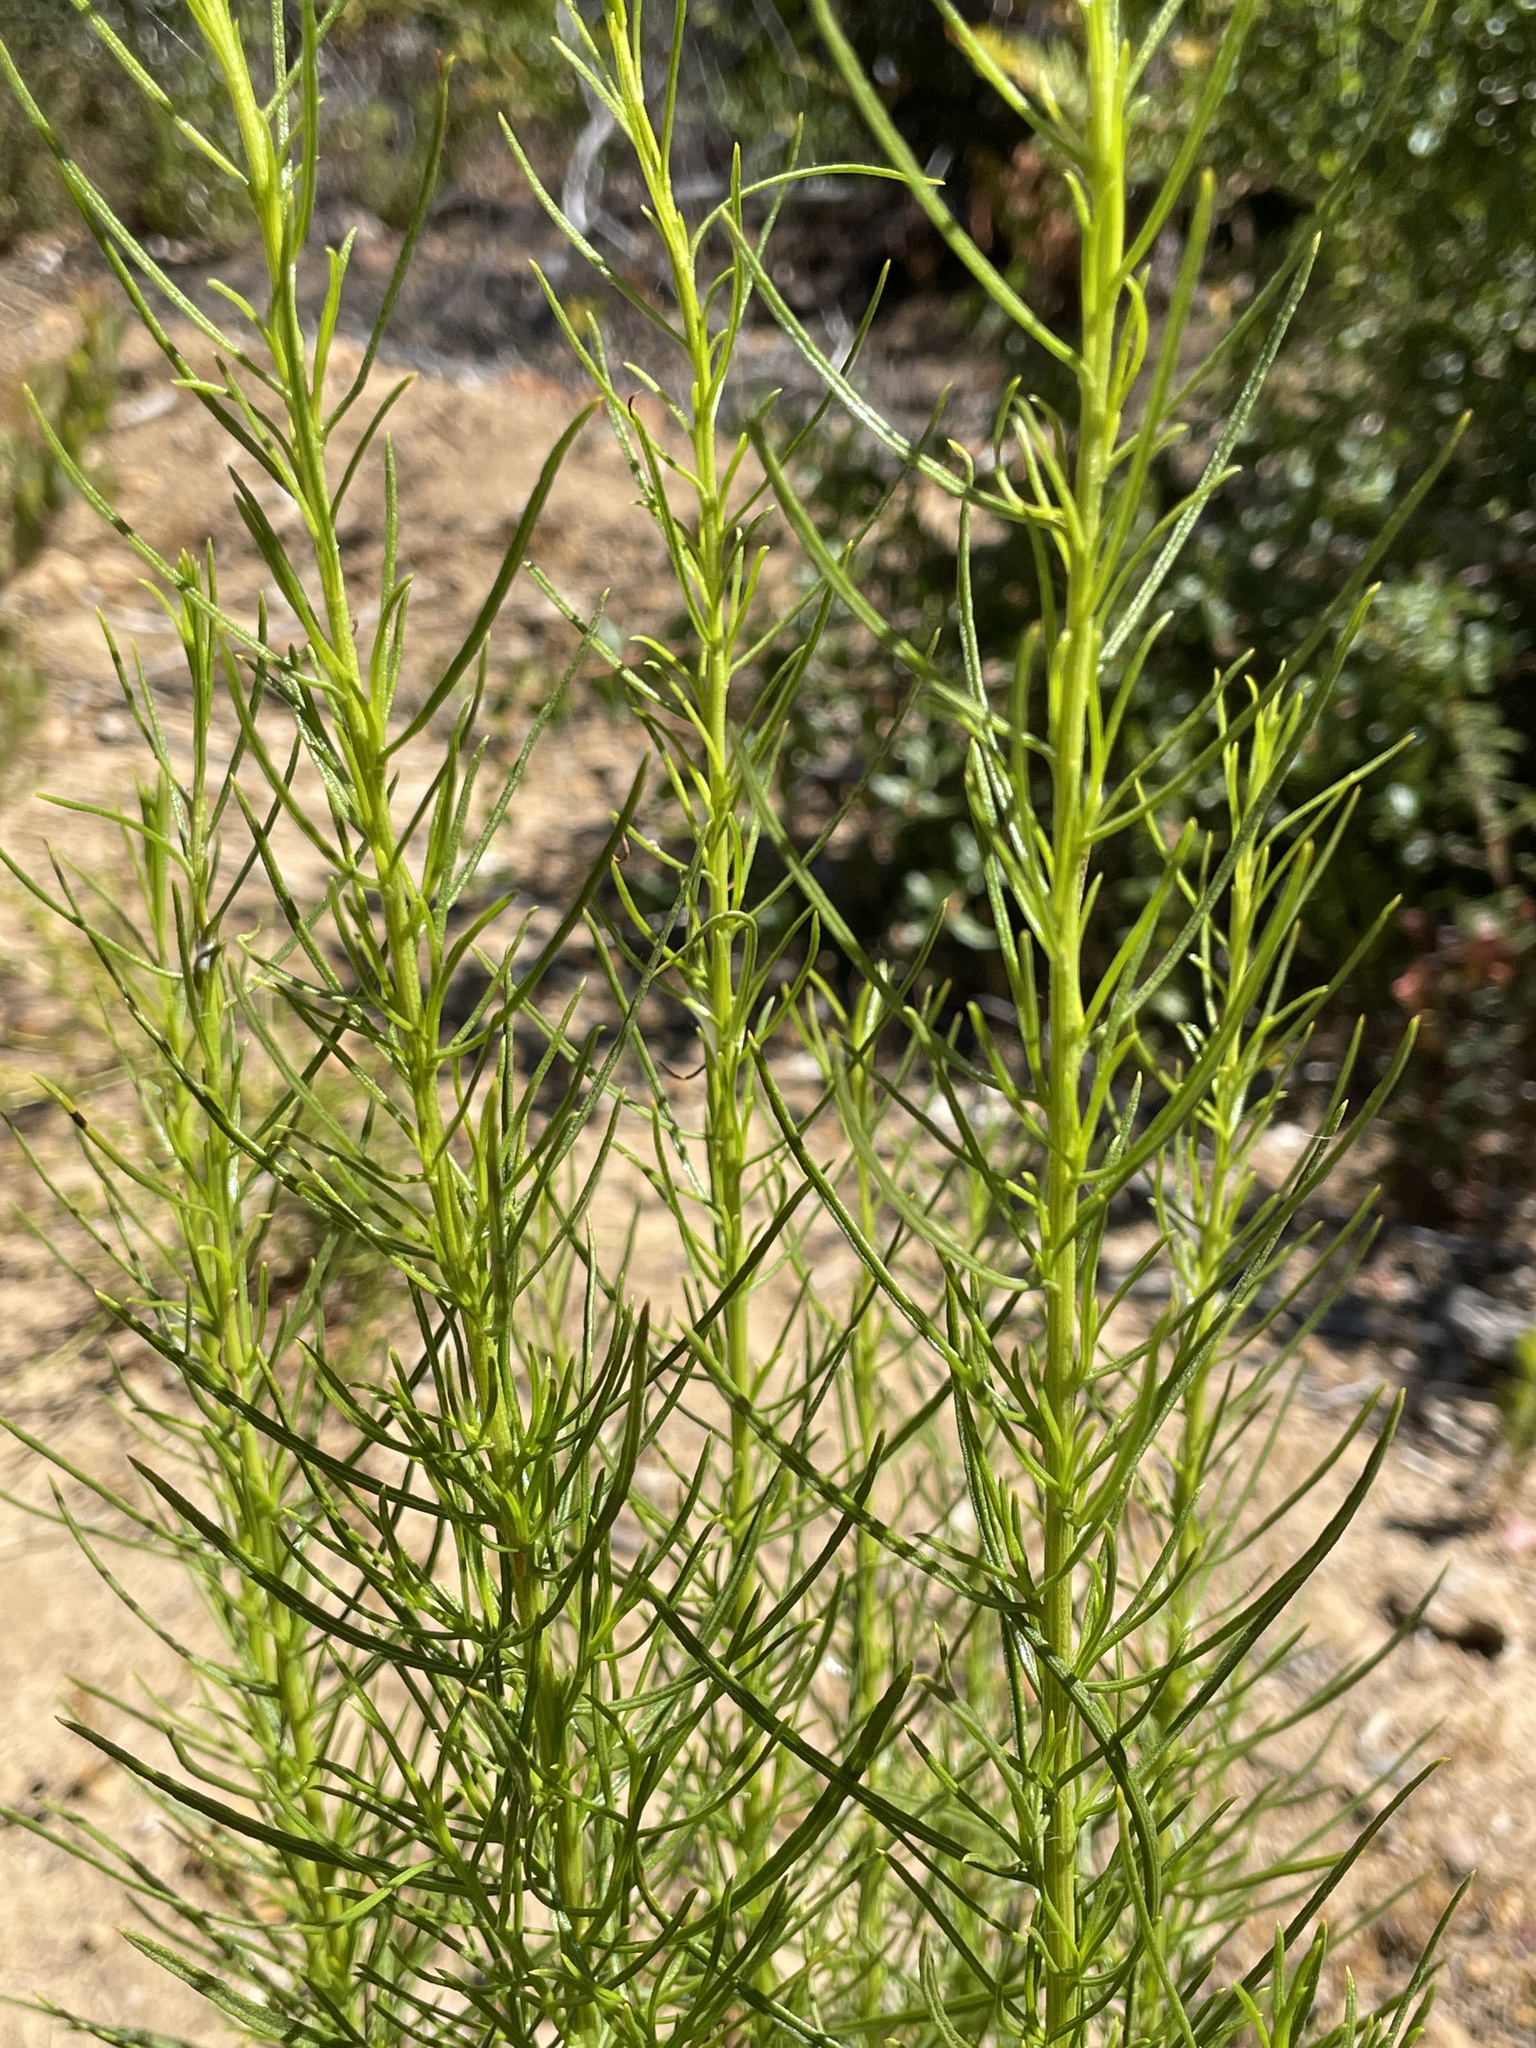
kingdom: Plantae
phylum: Tracheophyta
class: Magnoliopsida
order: Asterales
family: Asteraceae
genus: Ericameria
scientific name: Ericameria arborescens
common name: Goldenfleece
